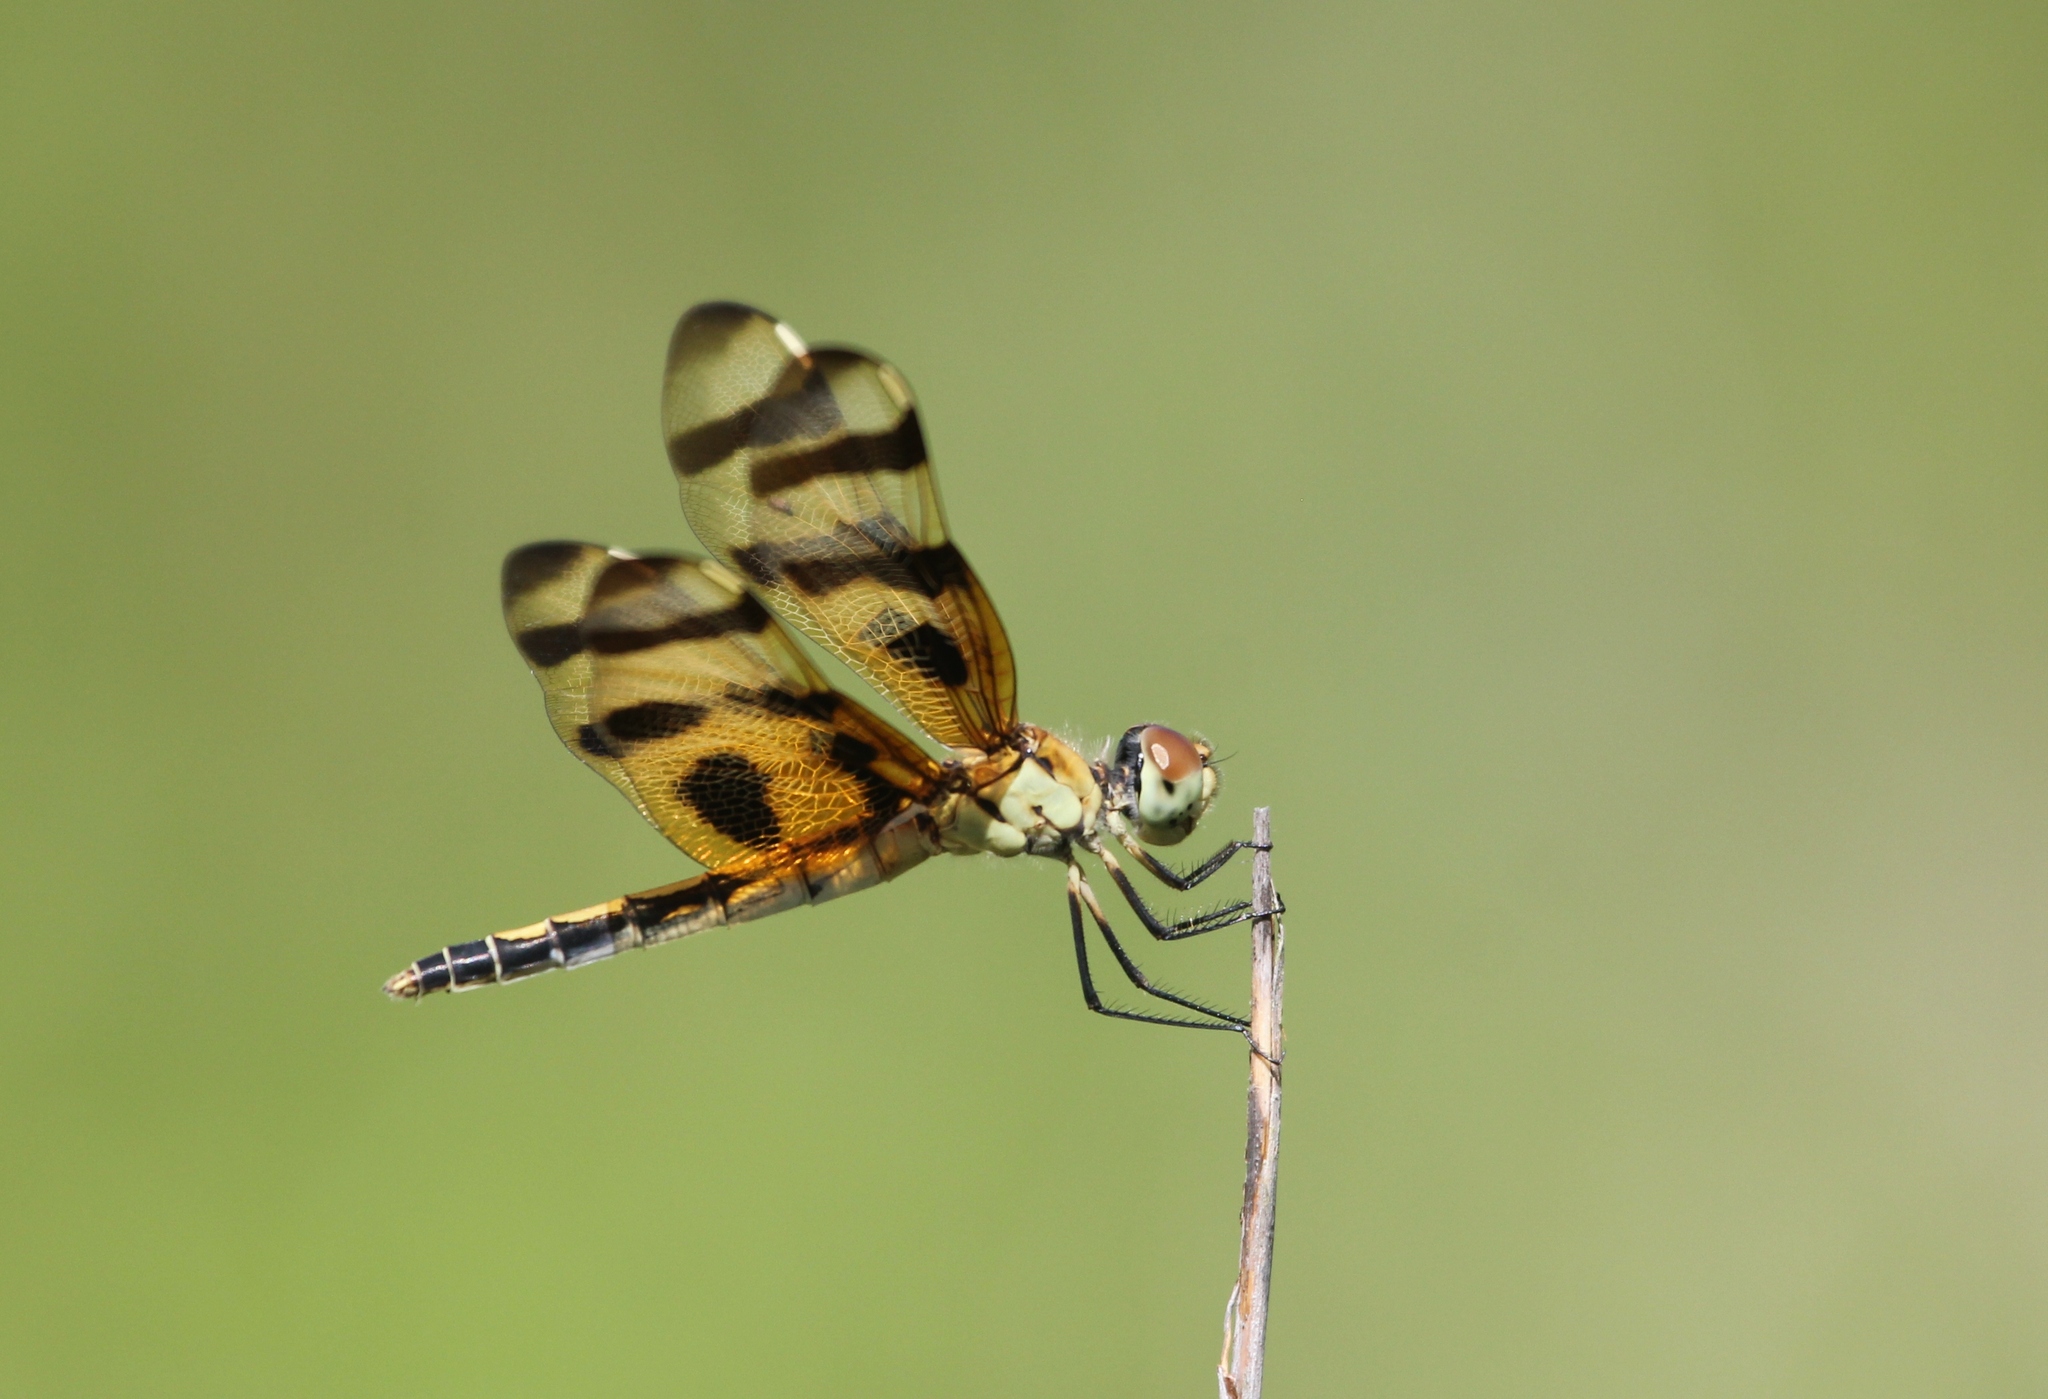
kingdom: Animalia
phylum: Arthropoda
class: Insecta
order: Odonata
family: Libellulidae
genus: Celithemis
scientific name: Celithemis eponina
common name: Halloween pennant
